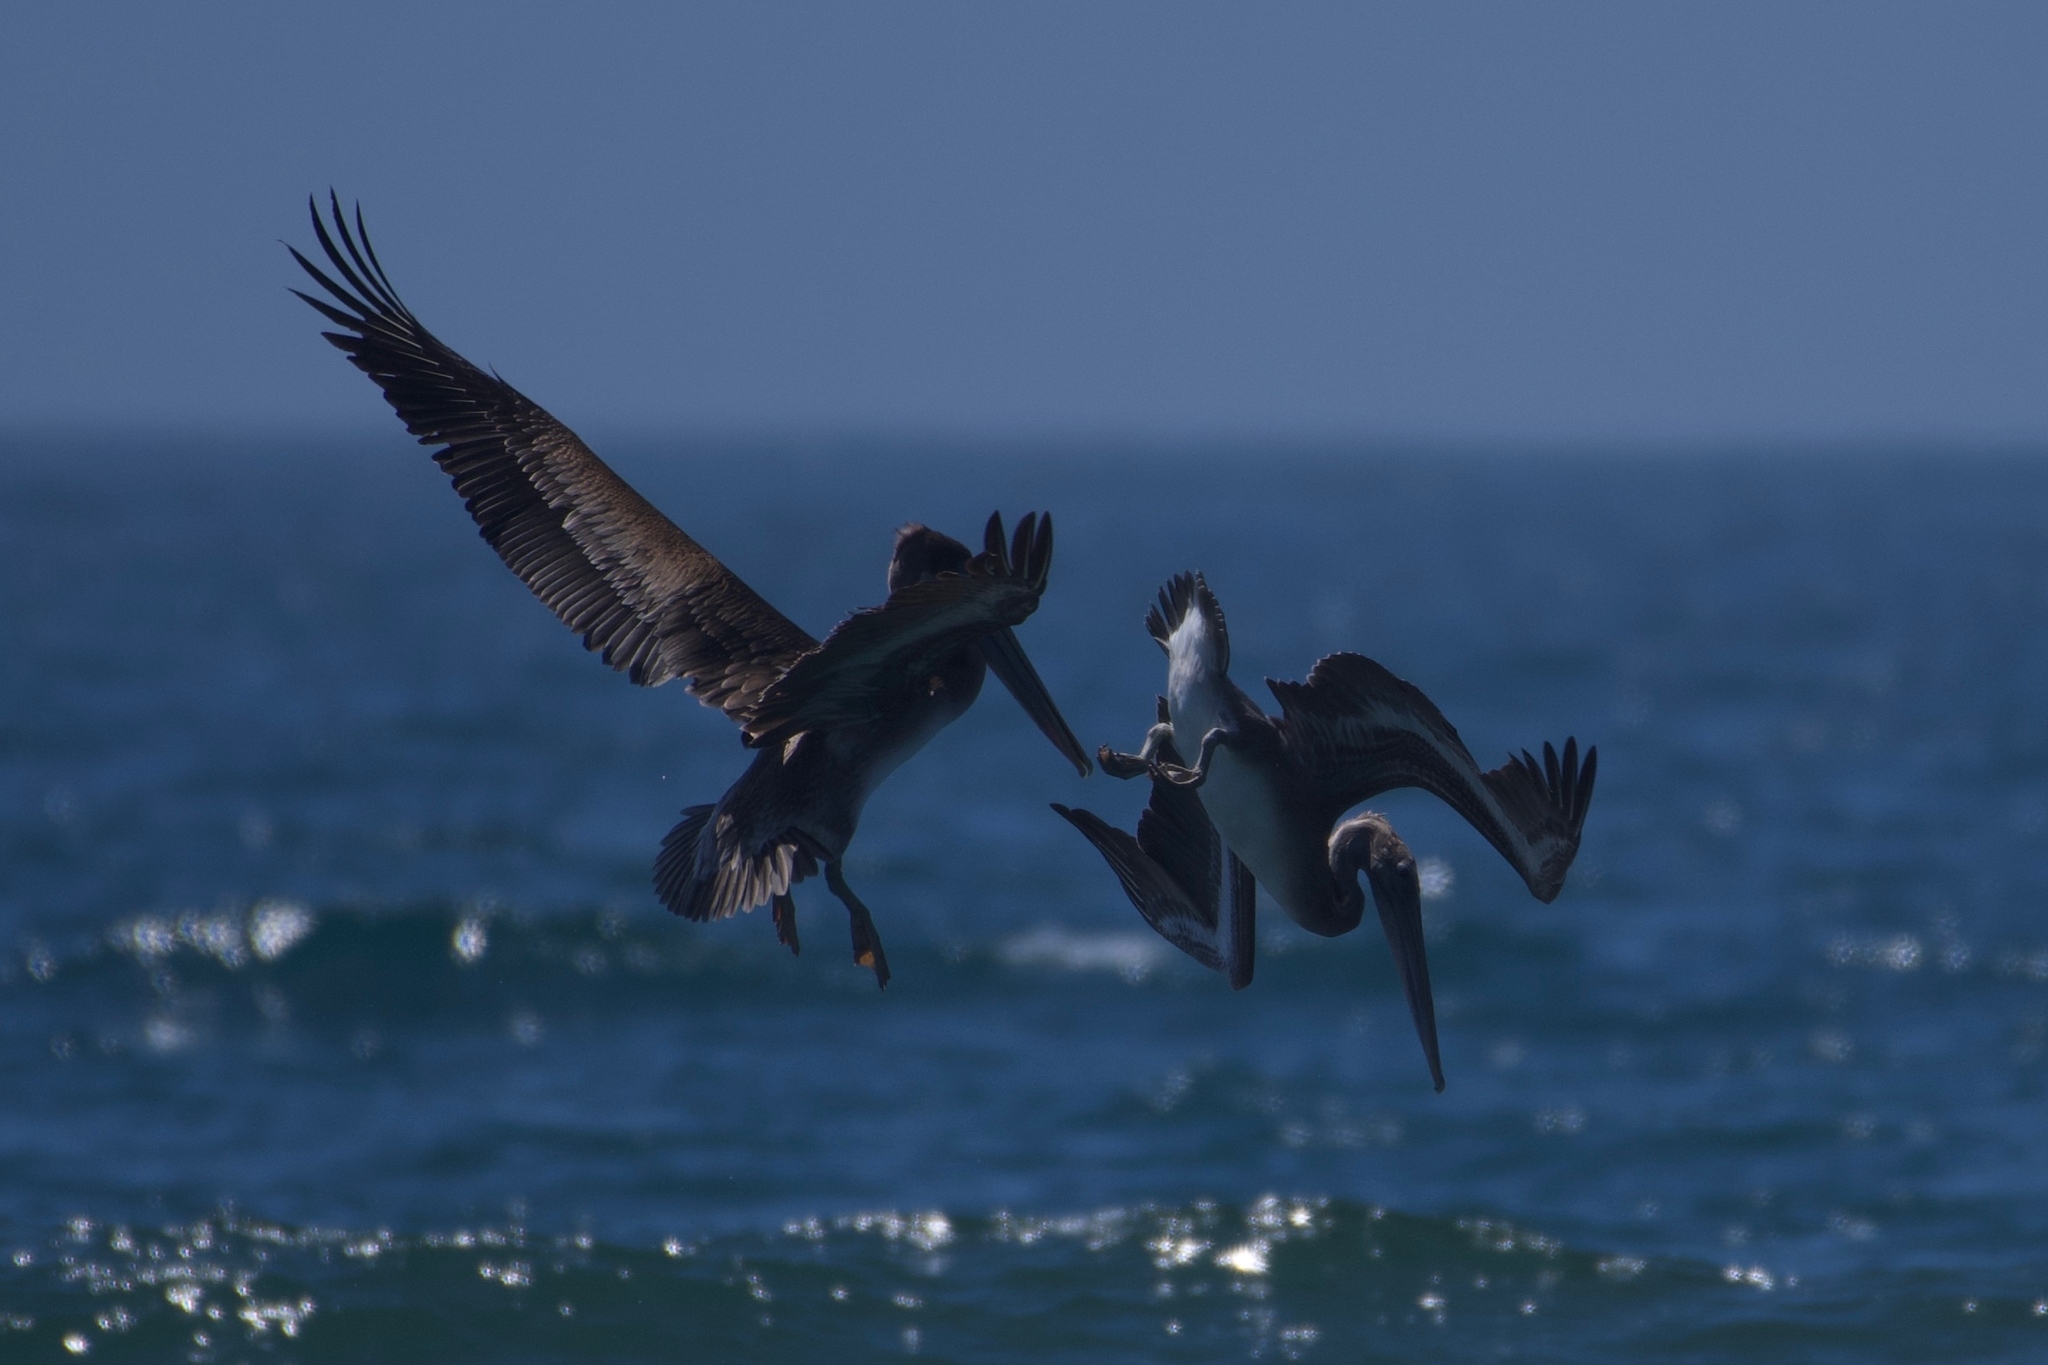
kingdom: Animalia
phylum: Chordata
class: Aves
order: Pelecaniformes
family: Pelecanidae
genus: Pelecanus
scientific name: Pelecanus occidentalis
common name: Brown pelican
